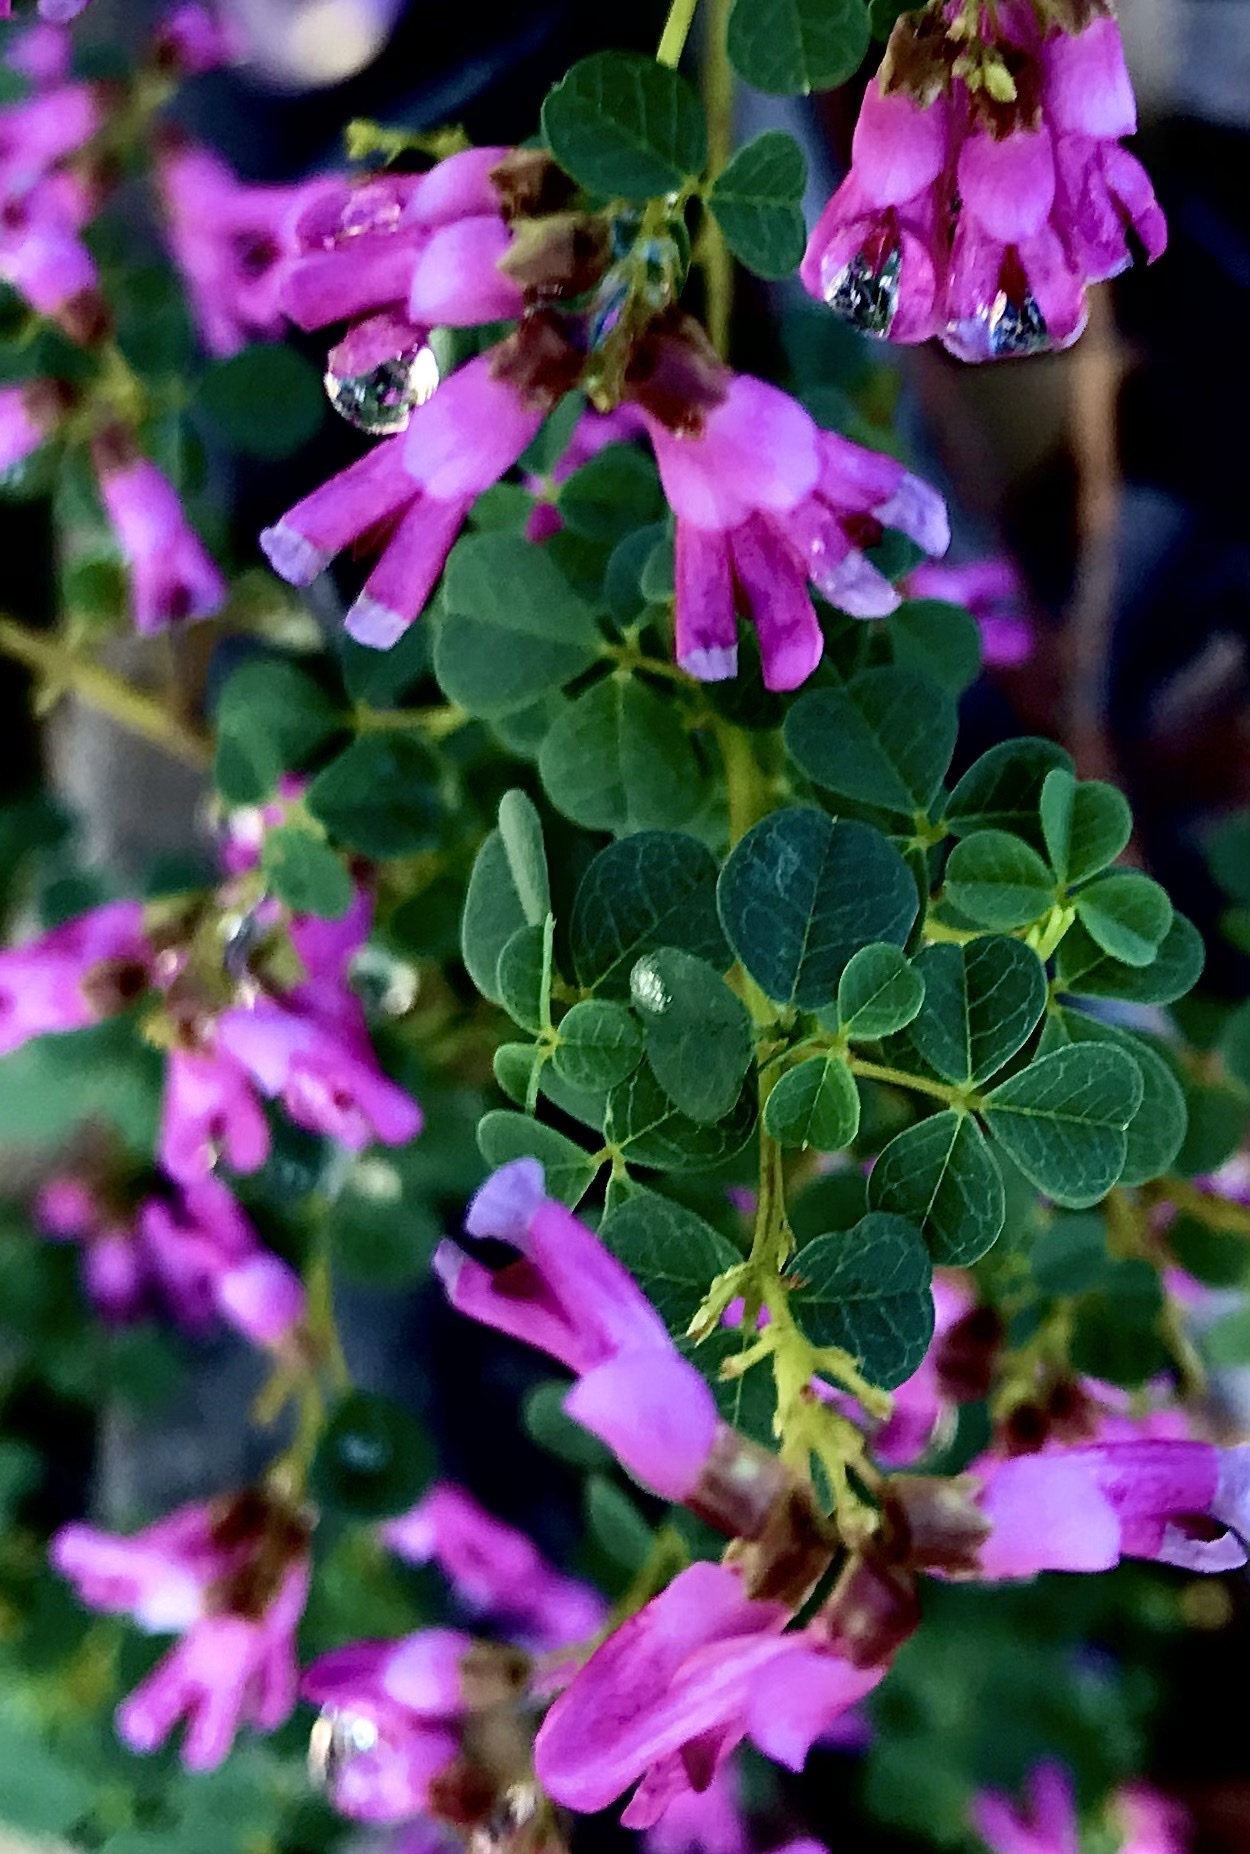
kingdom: Plantae
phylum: Tracheophyta
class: Magnoliopsida
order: Fabales
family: Fabaceae
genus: Hypocalyptus
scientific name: Hypocalyptus oxalidifolius
